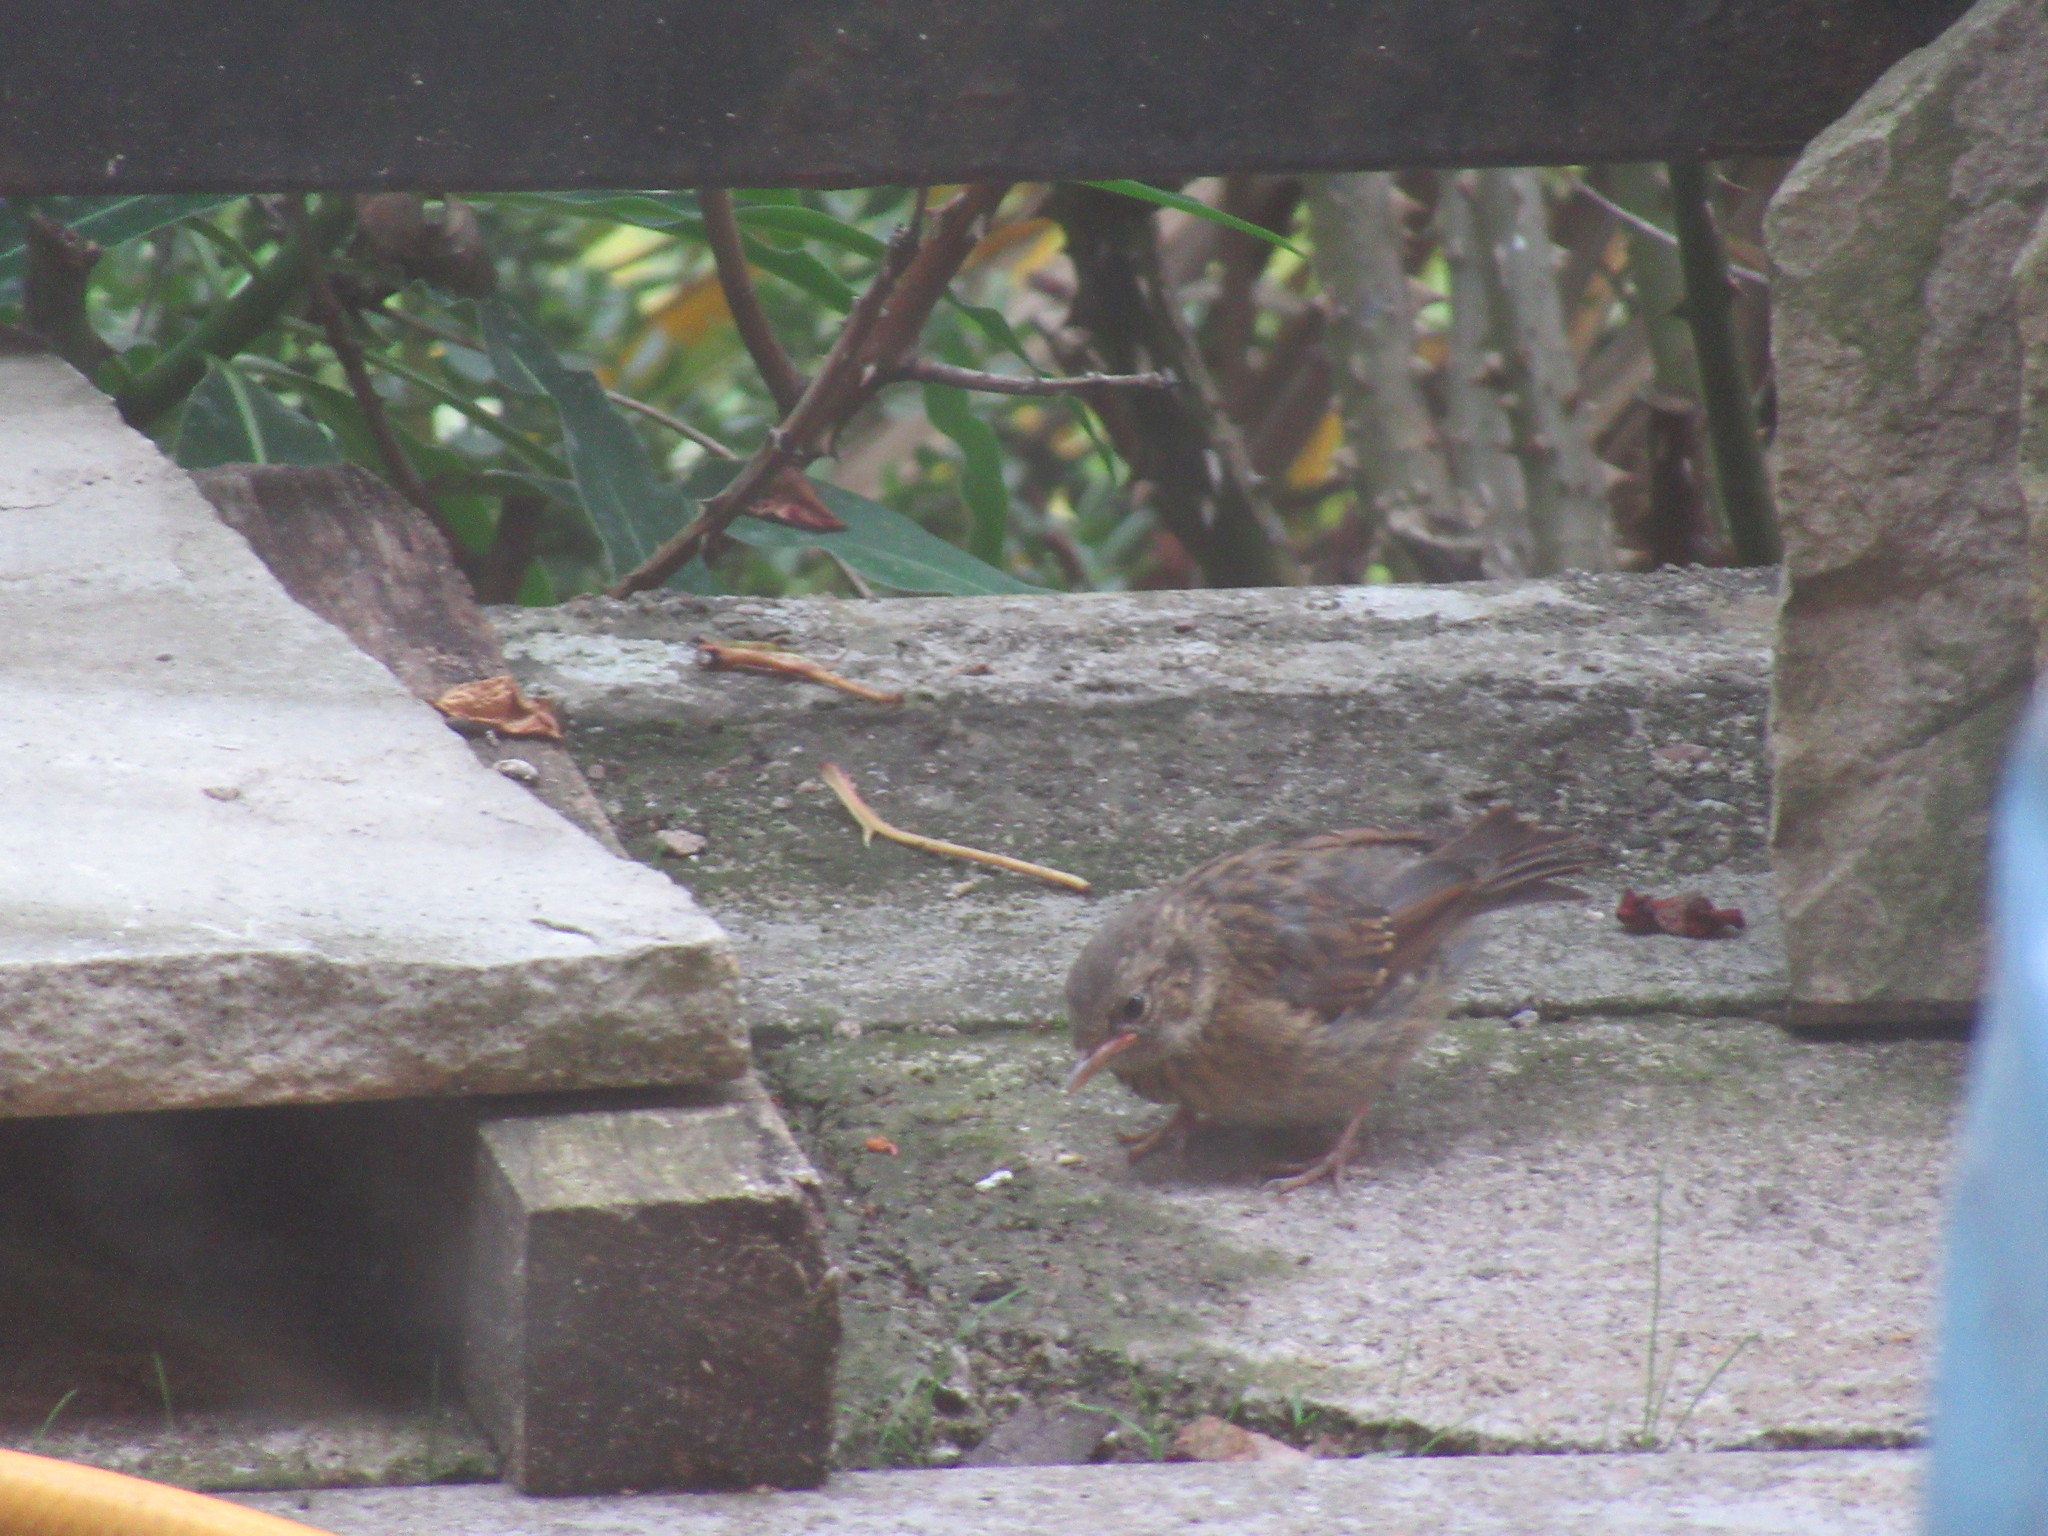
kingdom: Animalia
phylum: Chordata
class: Aves
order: Passeriformes
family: Prunellidae
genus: Prunella
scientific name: Prunella modularis
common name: Dunnock
